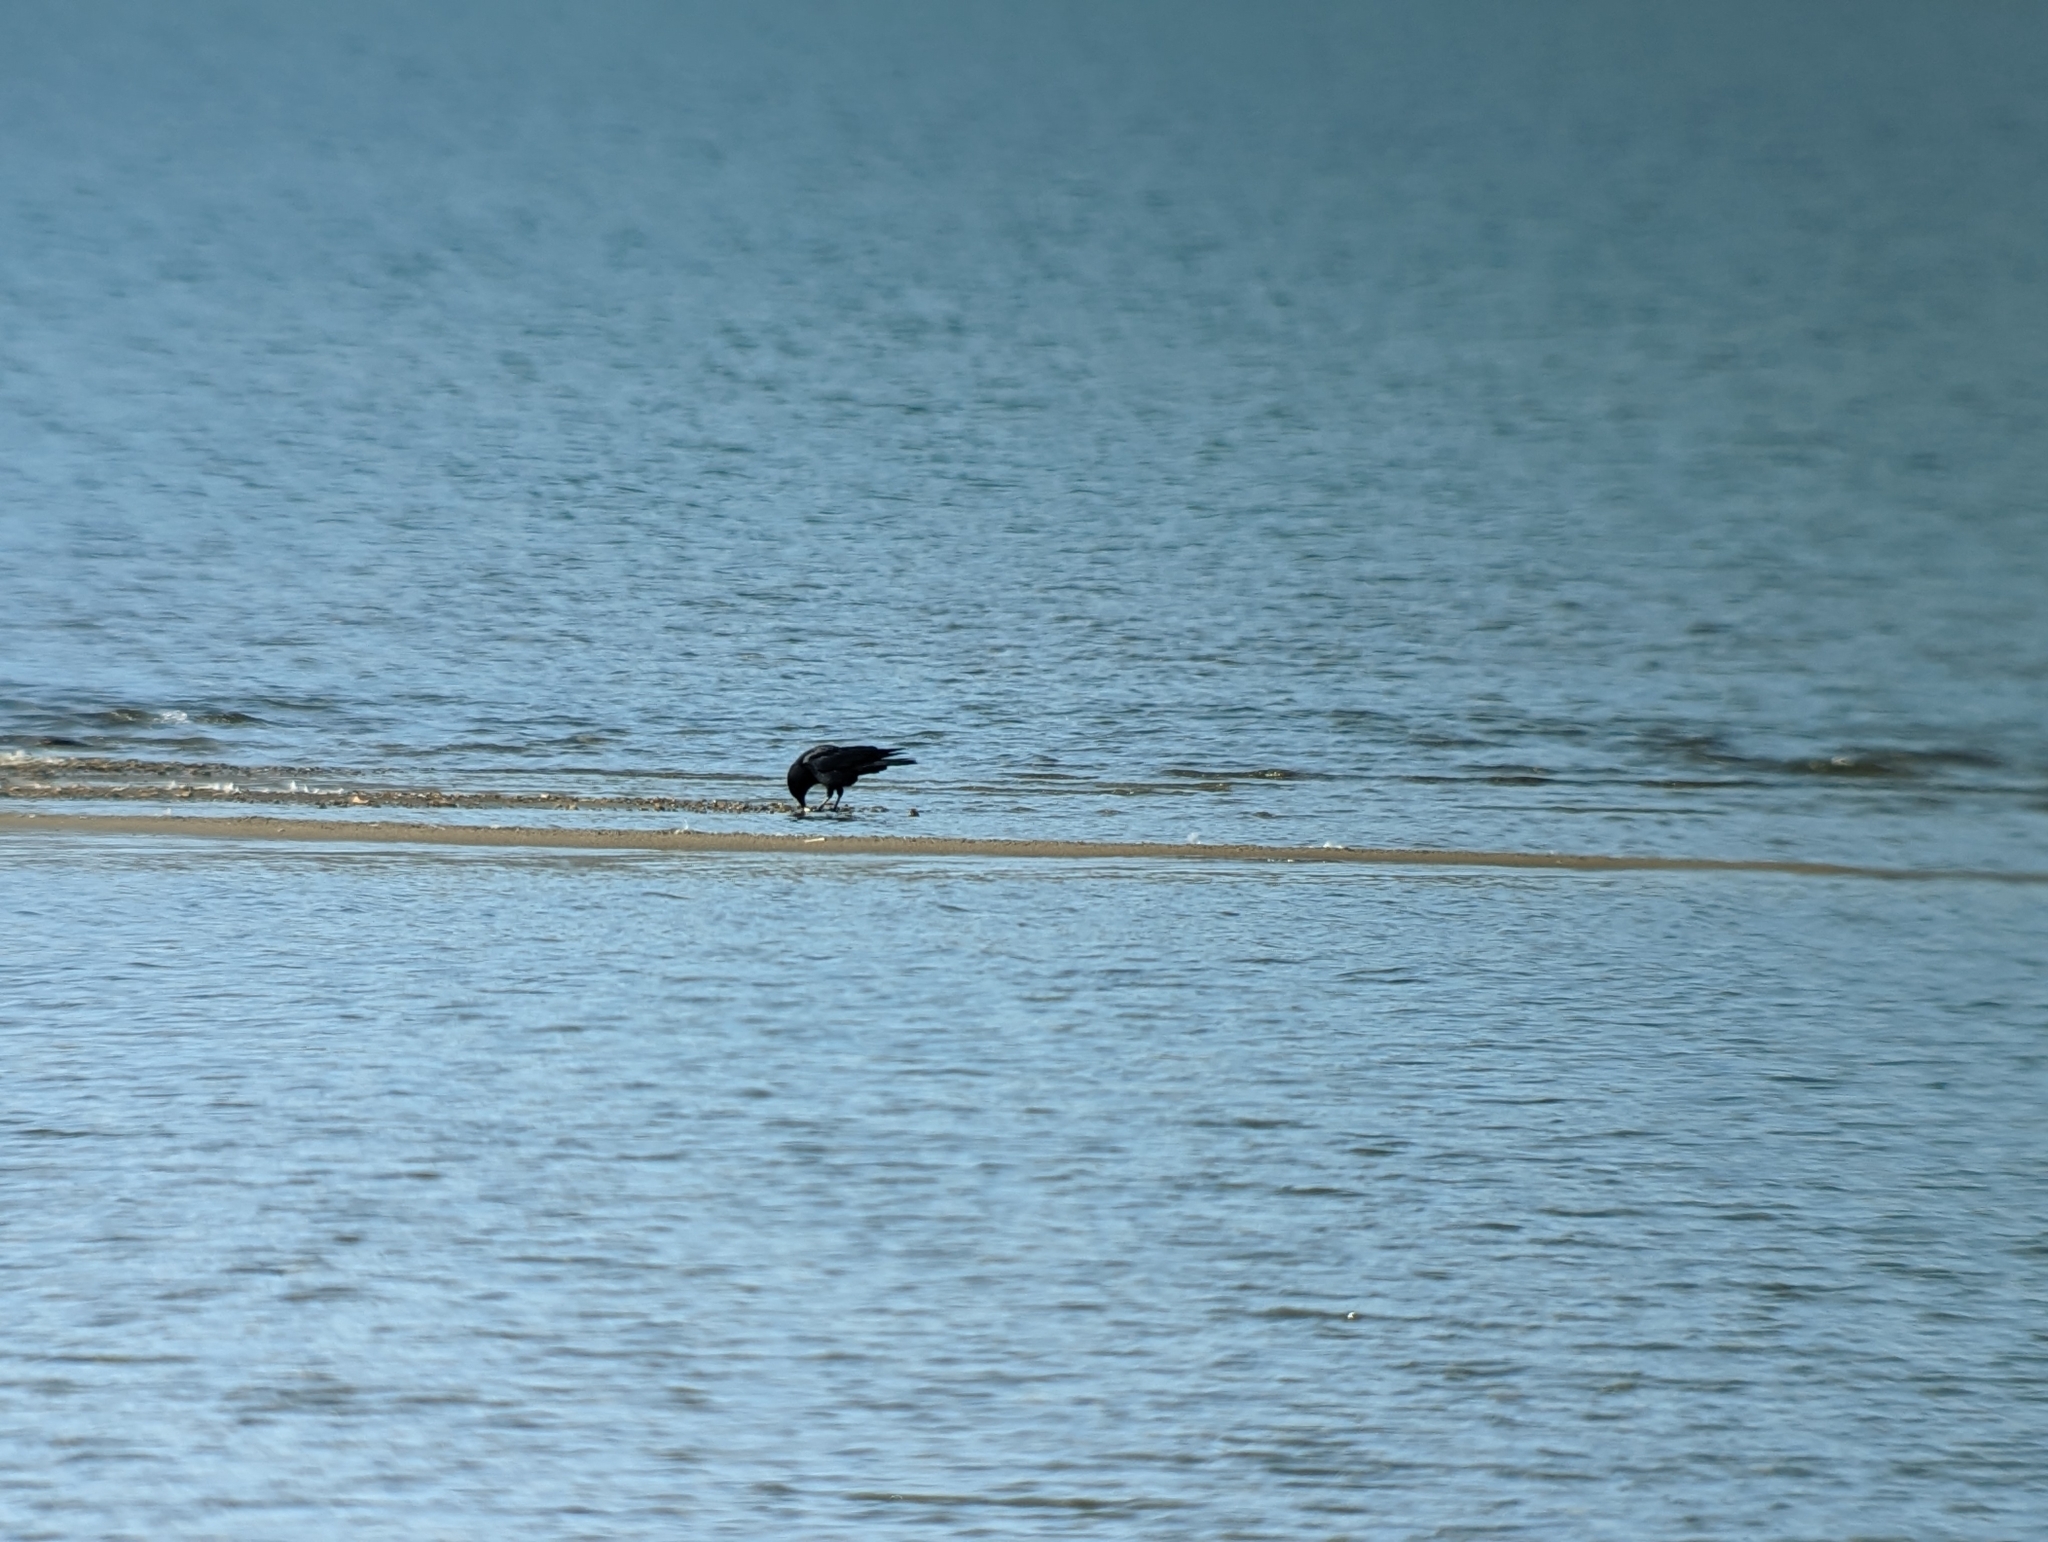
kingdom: Animalia
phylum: Chordata
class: Aves
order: Passeriformes
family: Corvidae
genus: Corvus
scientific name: Corvus brachyrhynchos
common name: American crow
